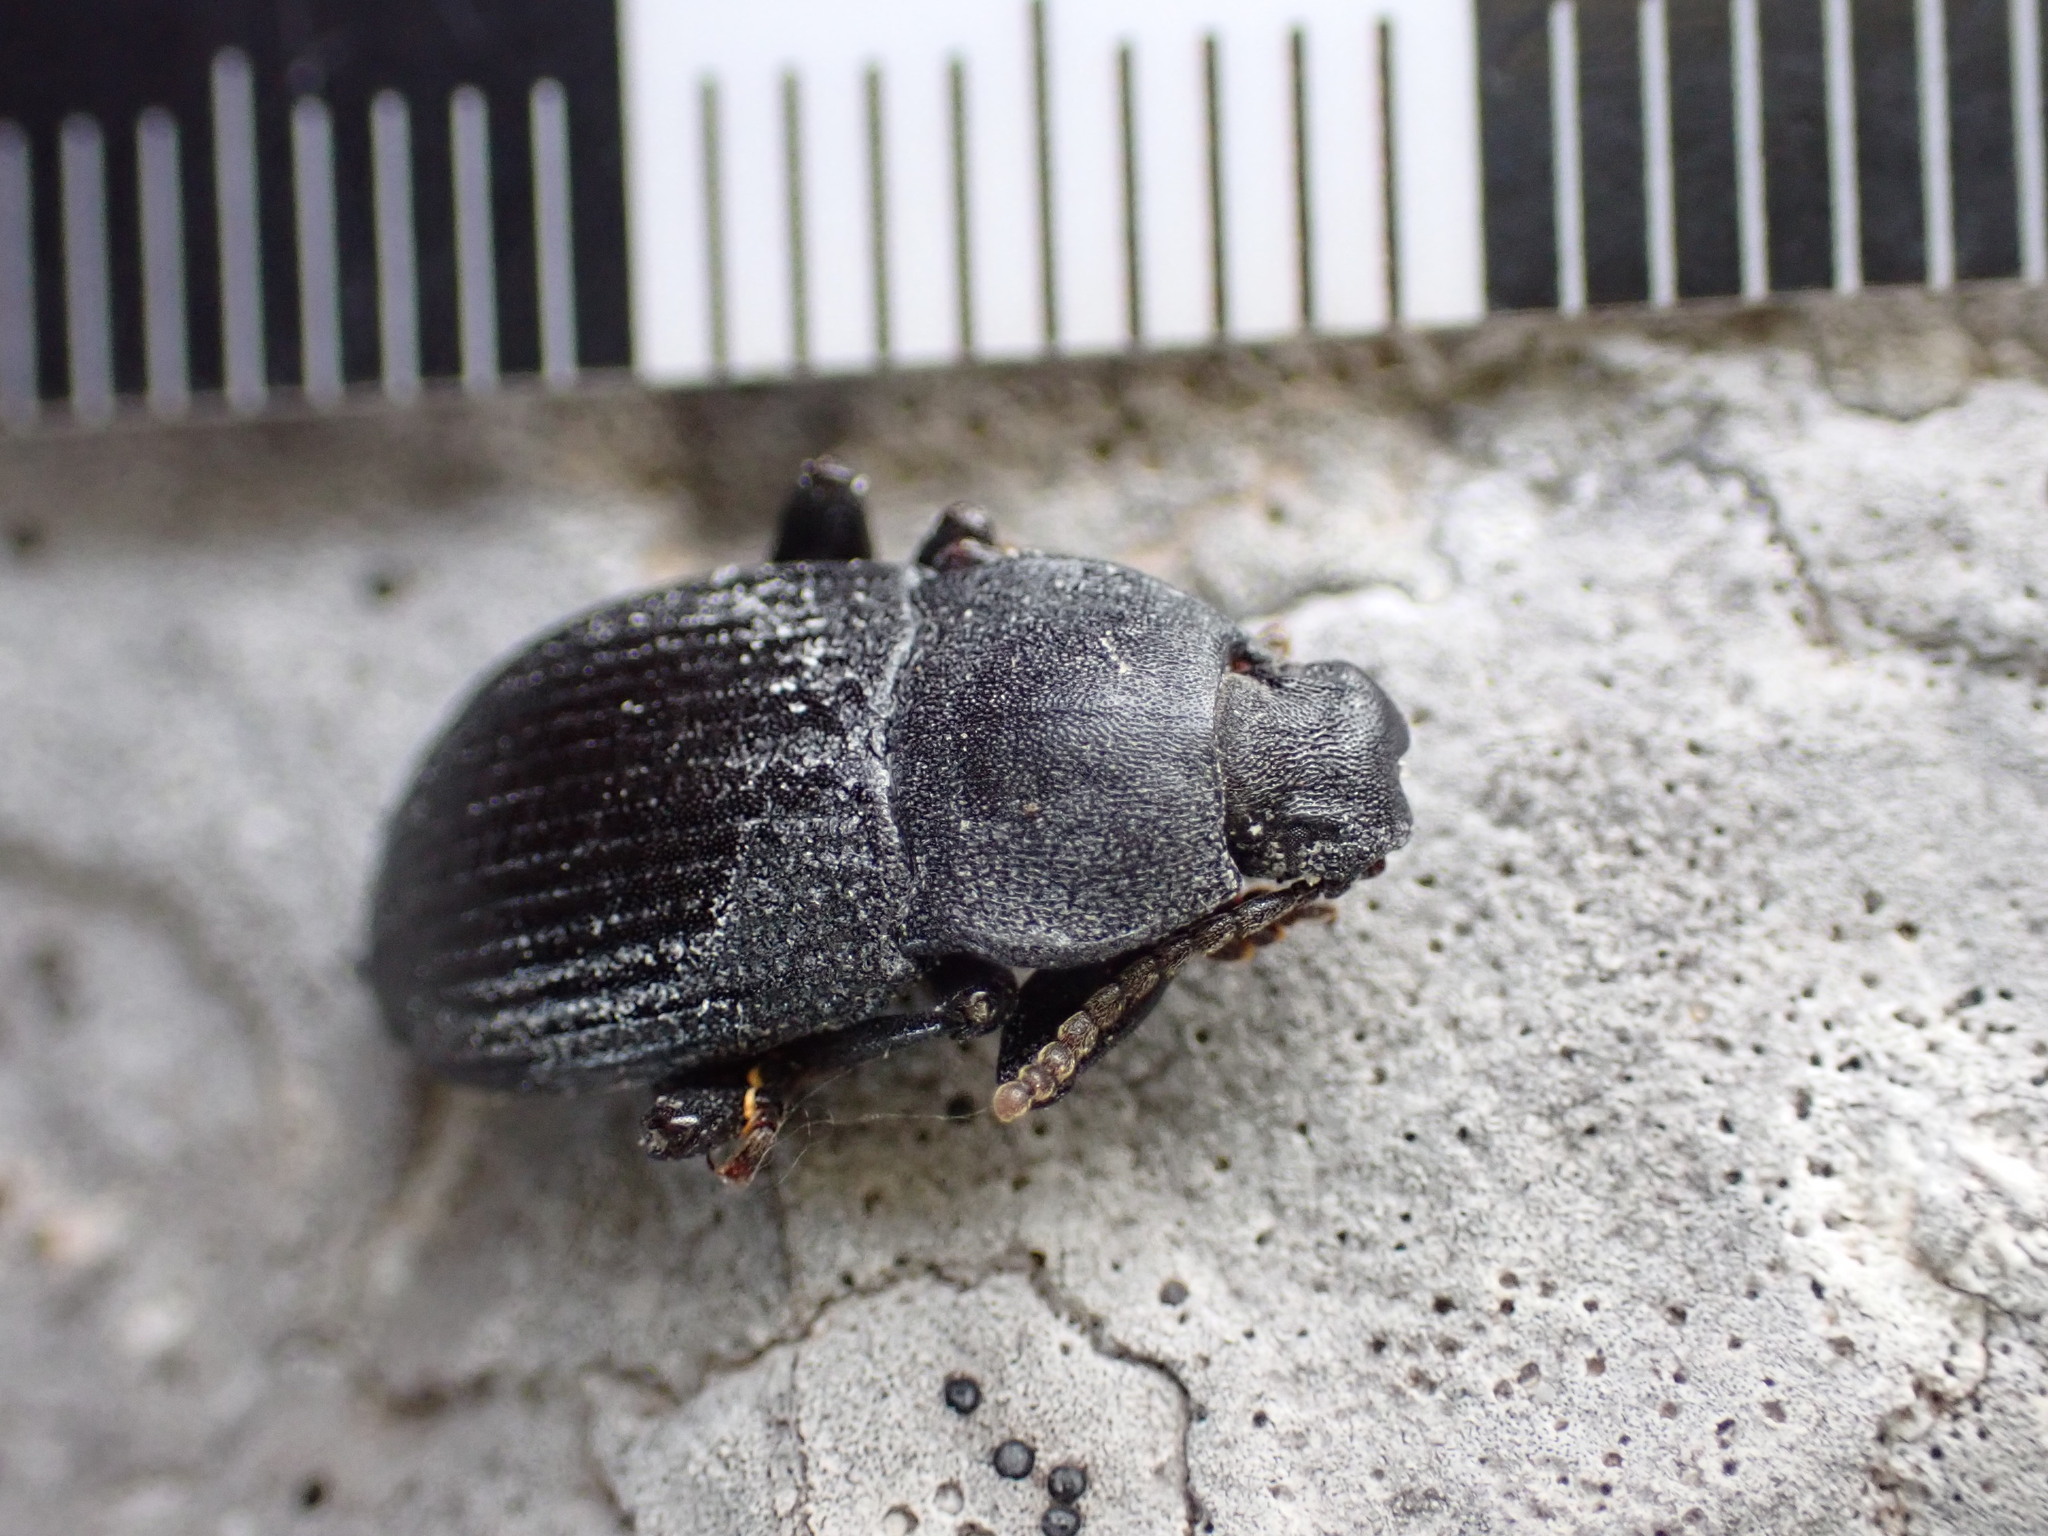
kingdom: Animalia
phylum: Arthropoda
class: Insecta
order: Coleoptera
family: Tenebrionidae
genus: Dendarus
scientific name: Dendarus coarcticollis
